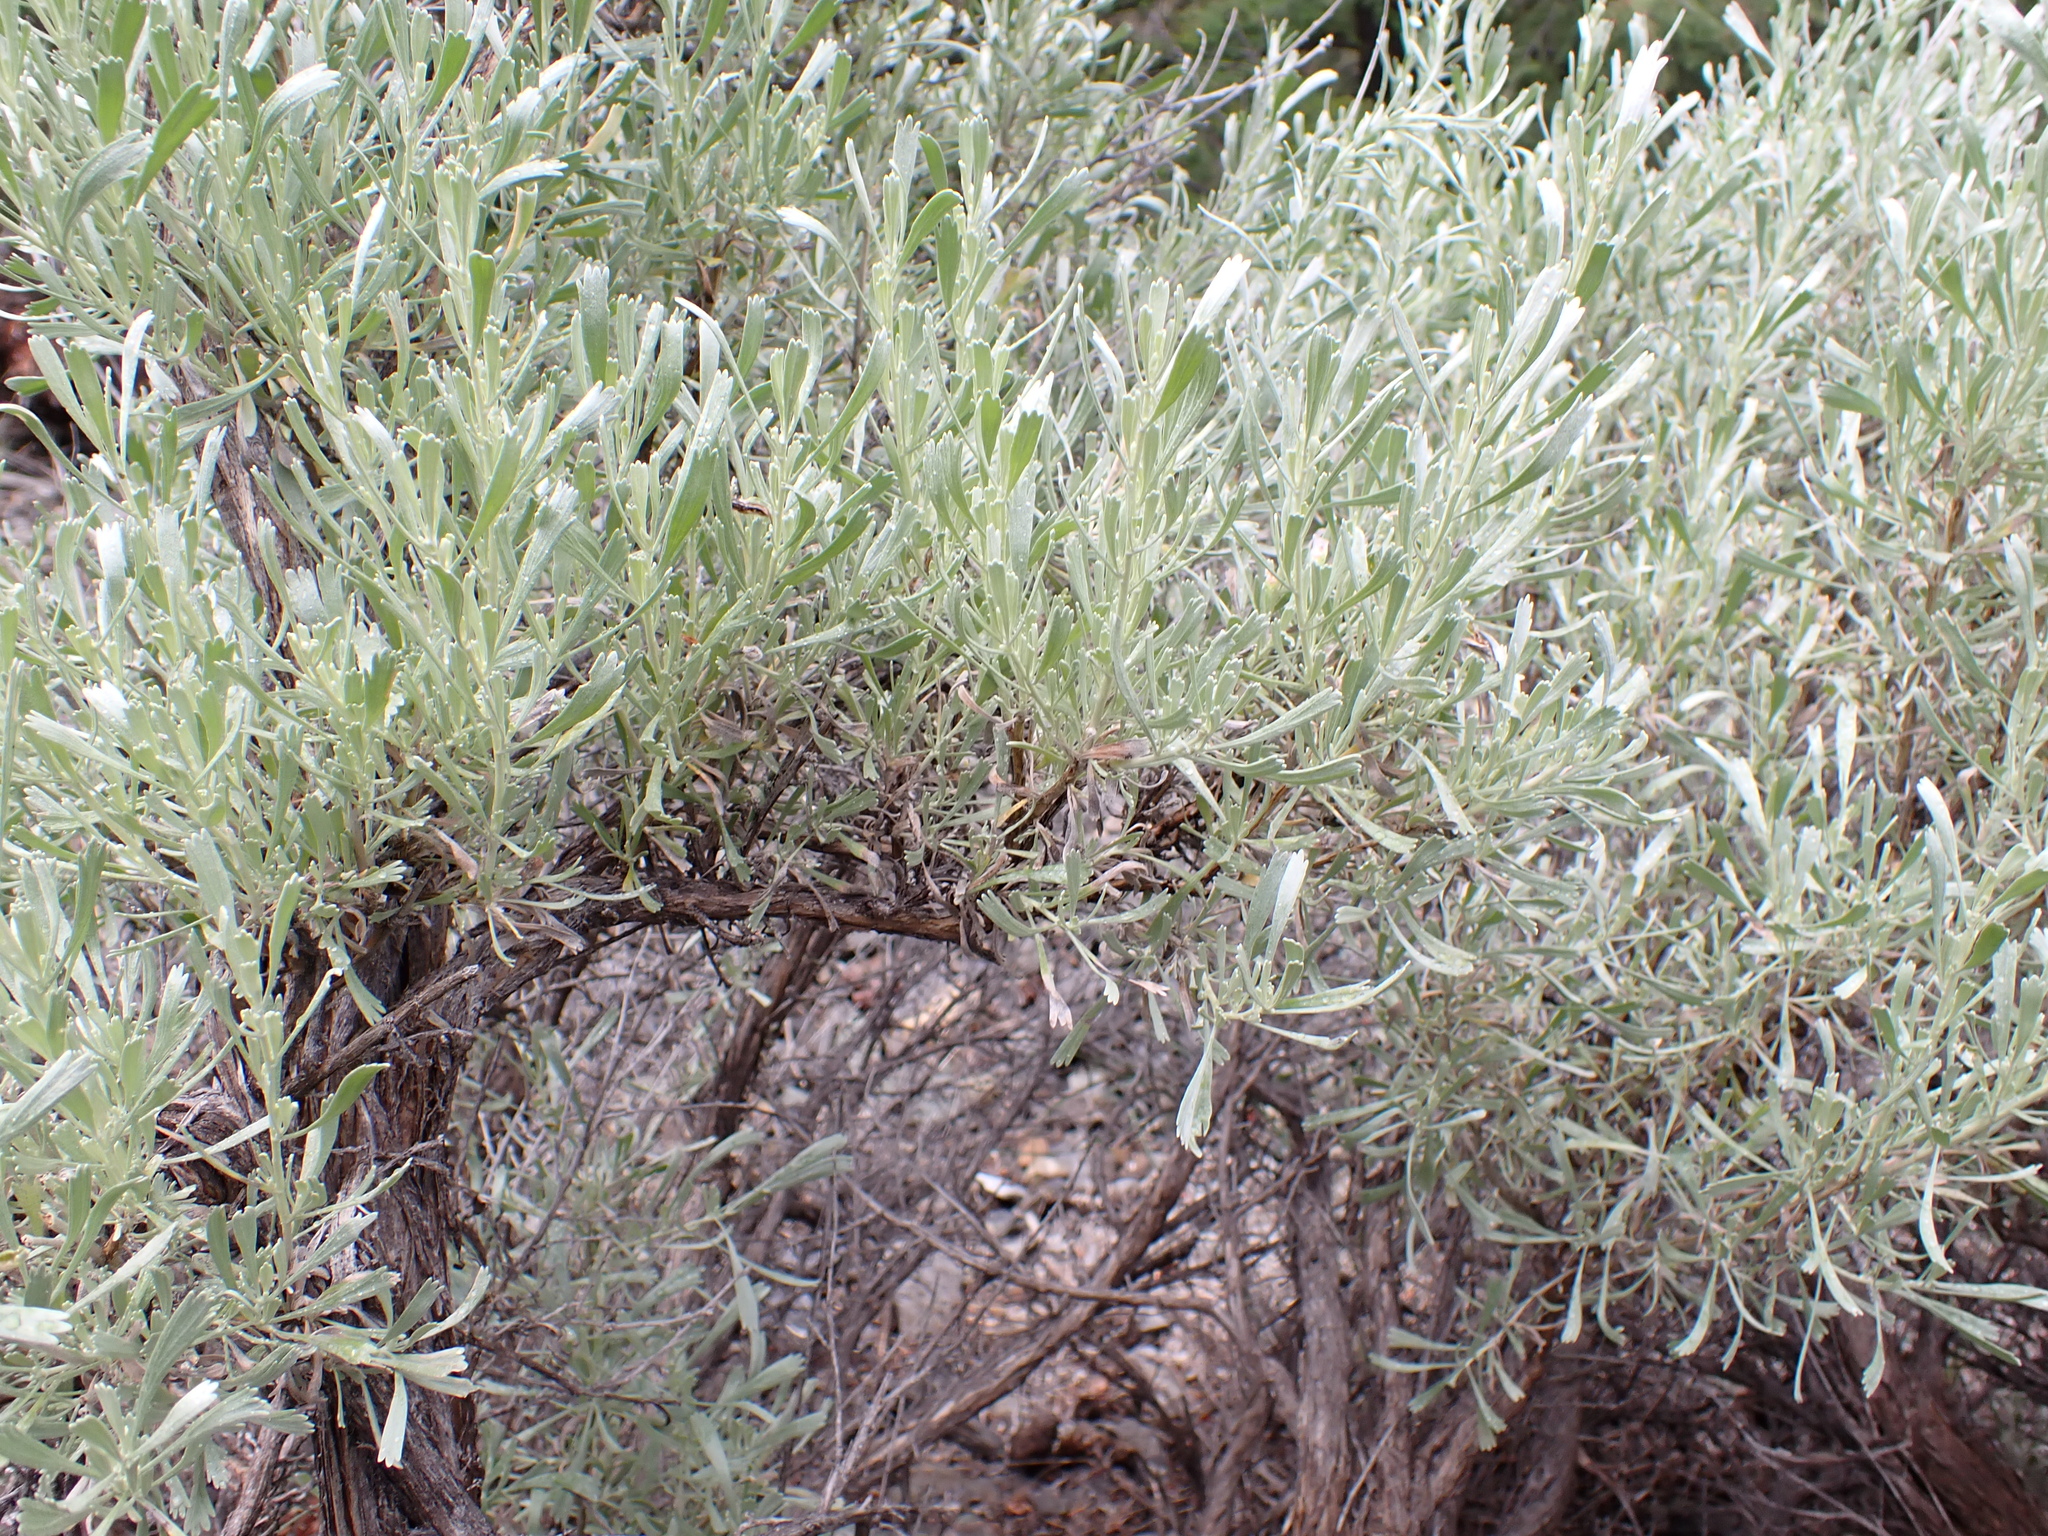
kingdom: Plantae
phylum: Tracheophyta
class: Magnoliopsida
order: Asterales
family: Asteraceae
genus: Artemisia
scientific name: Artemisia tridentata
